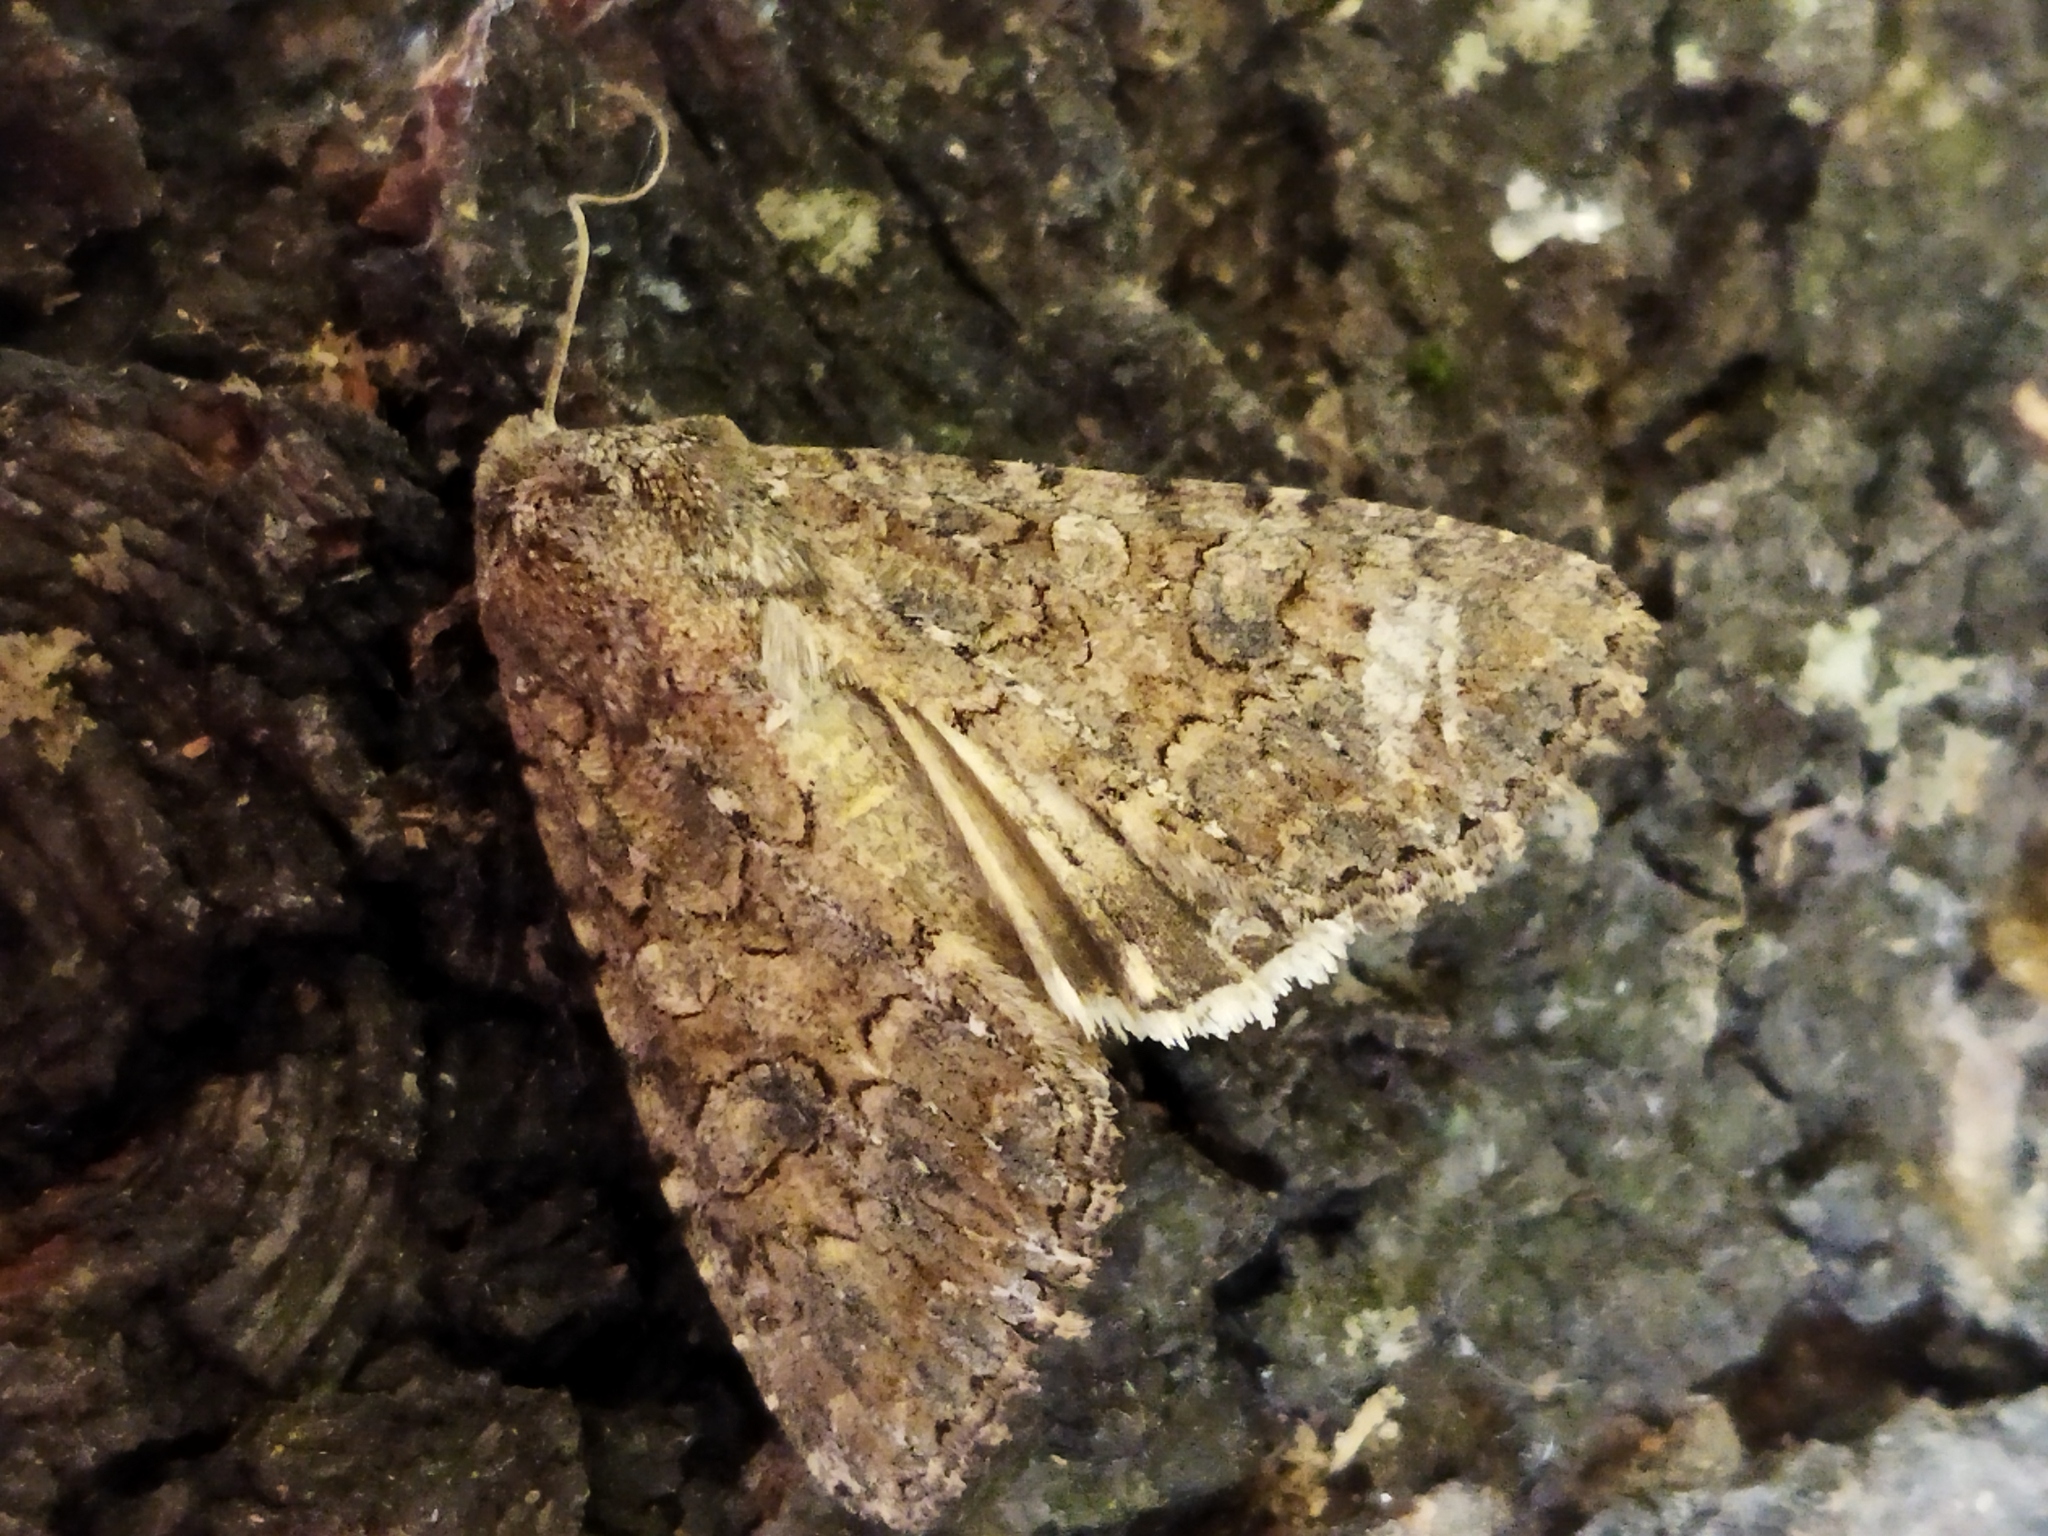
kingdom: Animalia
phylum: Arthropoda
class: Insecta
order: Lepidoptera
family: Noctuidae
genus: Anarta
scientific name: Anarta trifolii
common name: Clover cutworm moth
